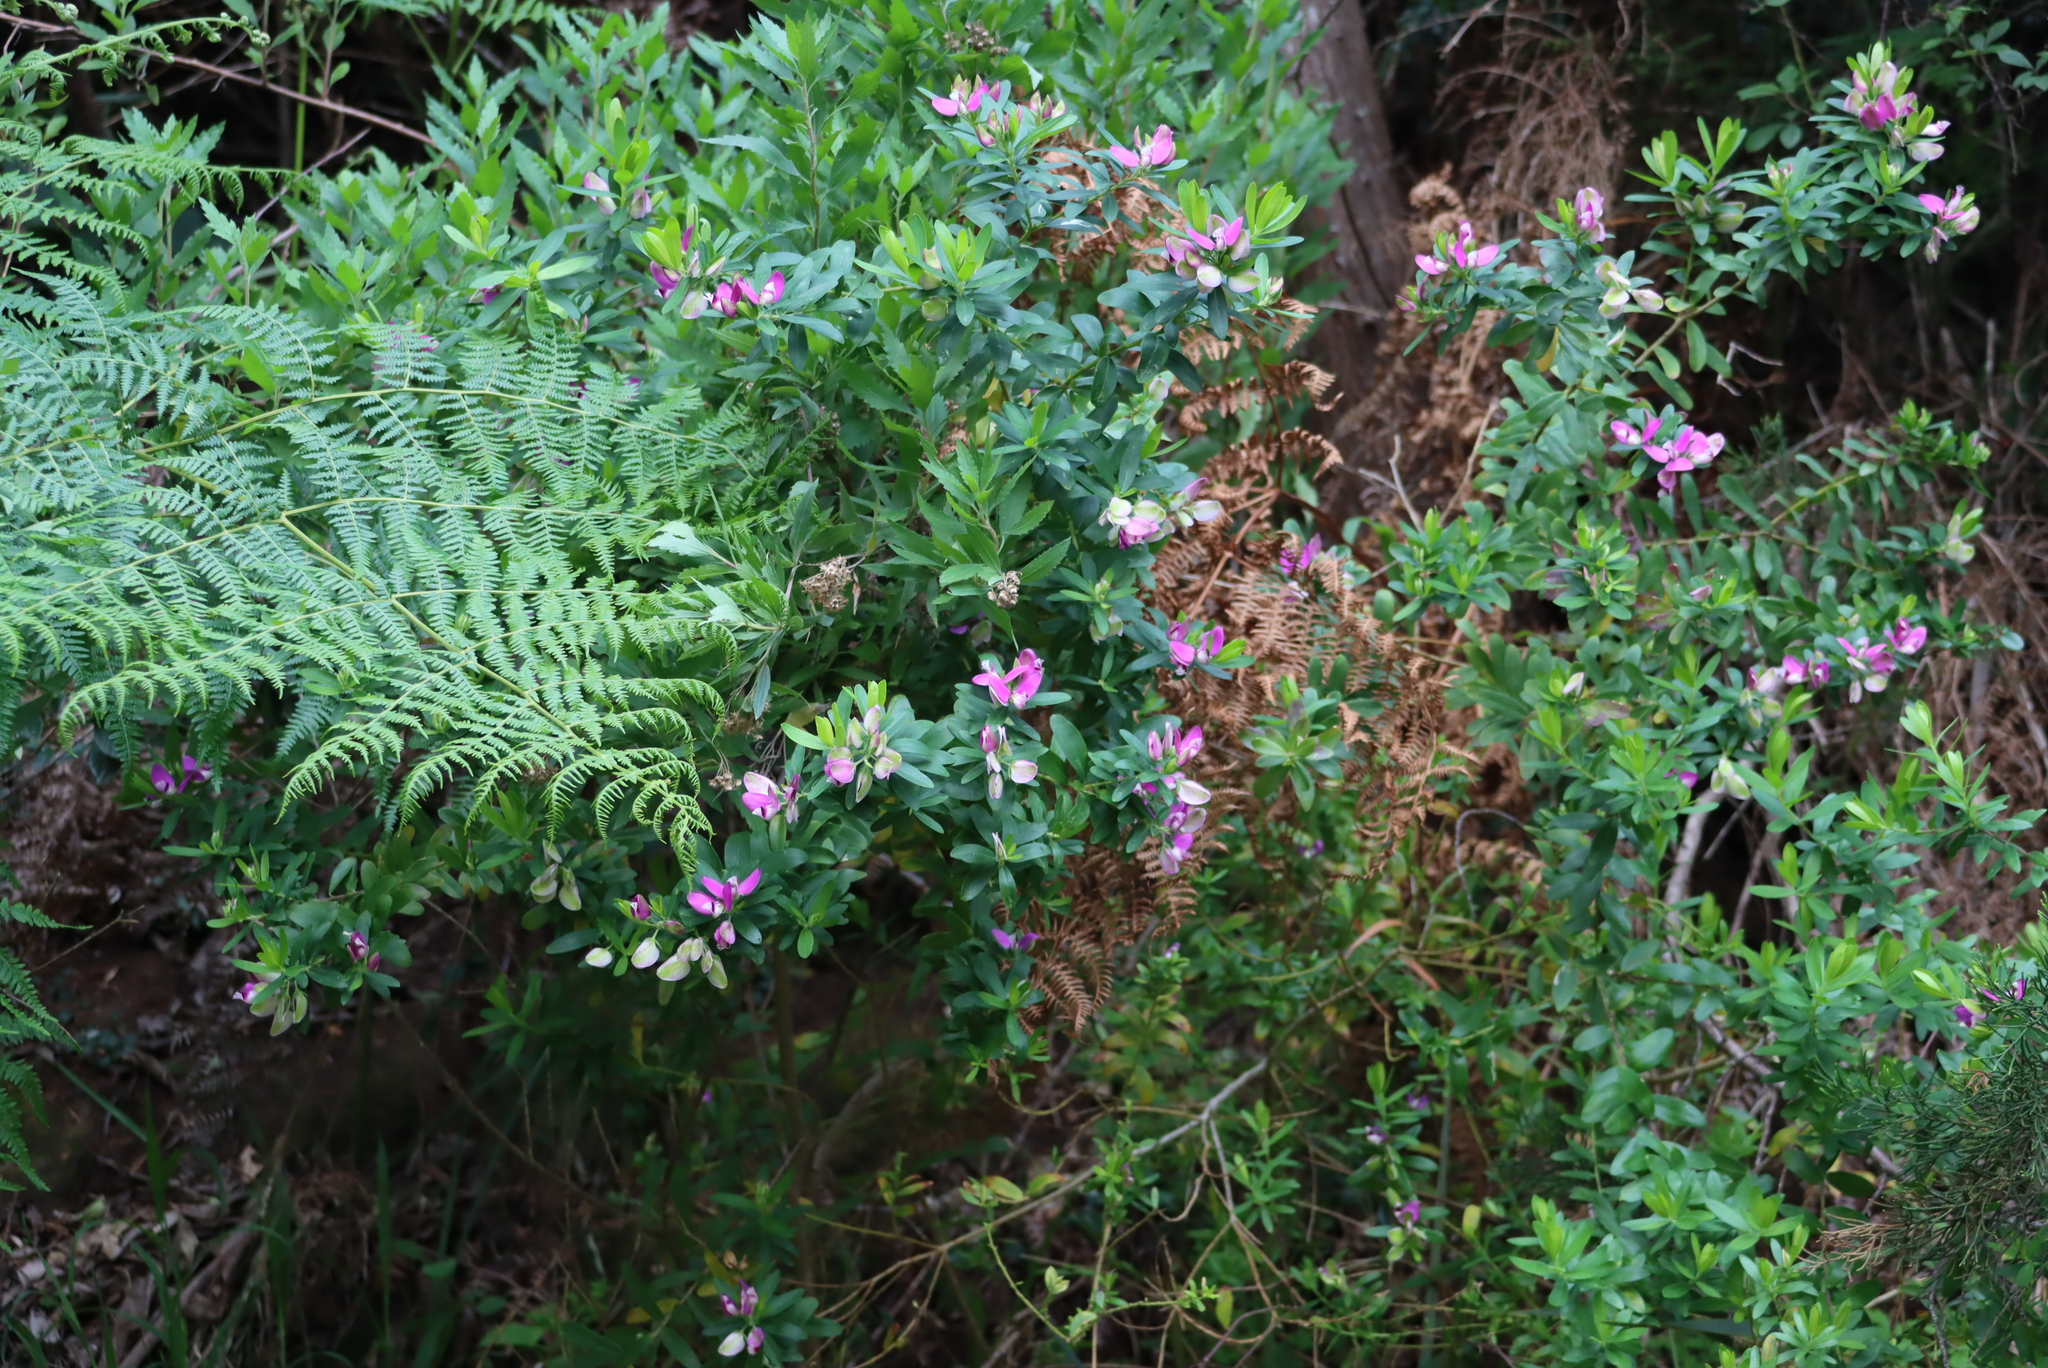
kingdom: Plantae
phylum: Tracheophyta
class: Magnoliopsida
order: Fabales
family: Polygalaceae
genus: Polygala
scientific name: Polygala myrtifolia
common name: Myrtle-leaf milkwort
